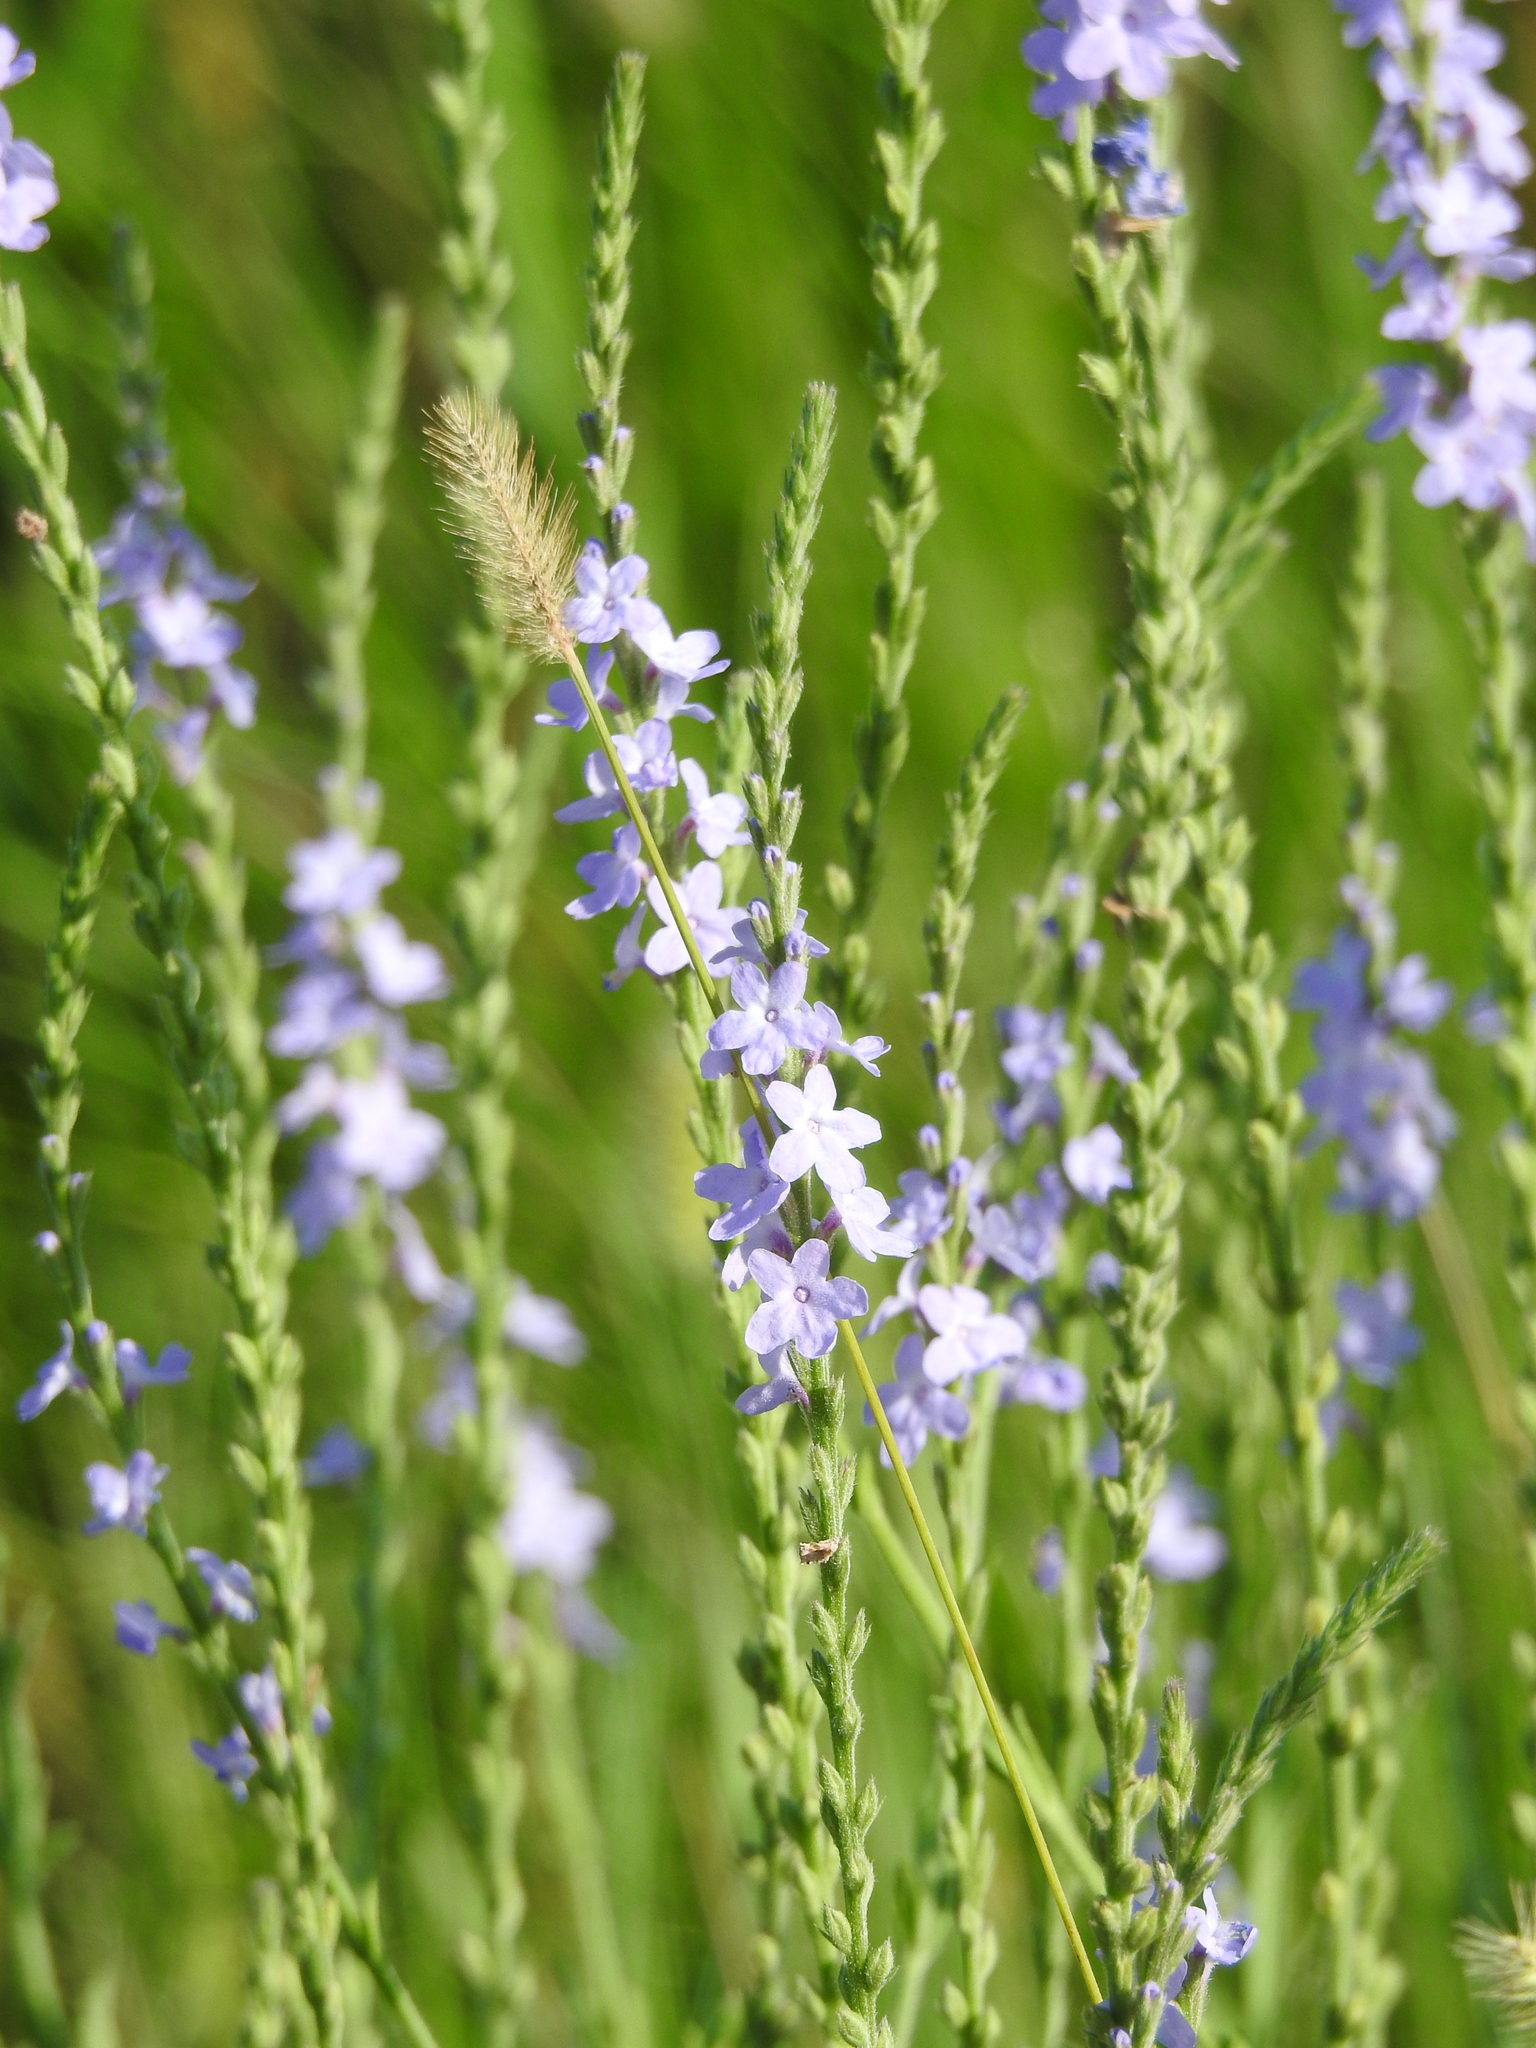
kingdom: Plantae
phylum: Tracheophyta
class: Magnoliopsida
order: Lamiales
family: Verbenaceae
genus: Verbena
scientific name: Verbena xutha
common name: Gulf vervain
